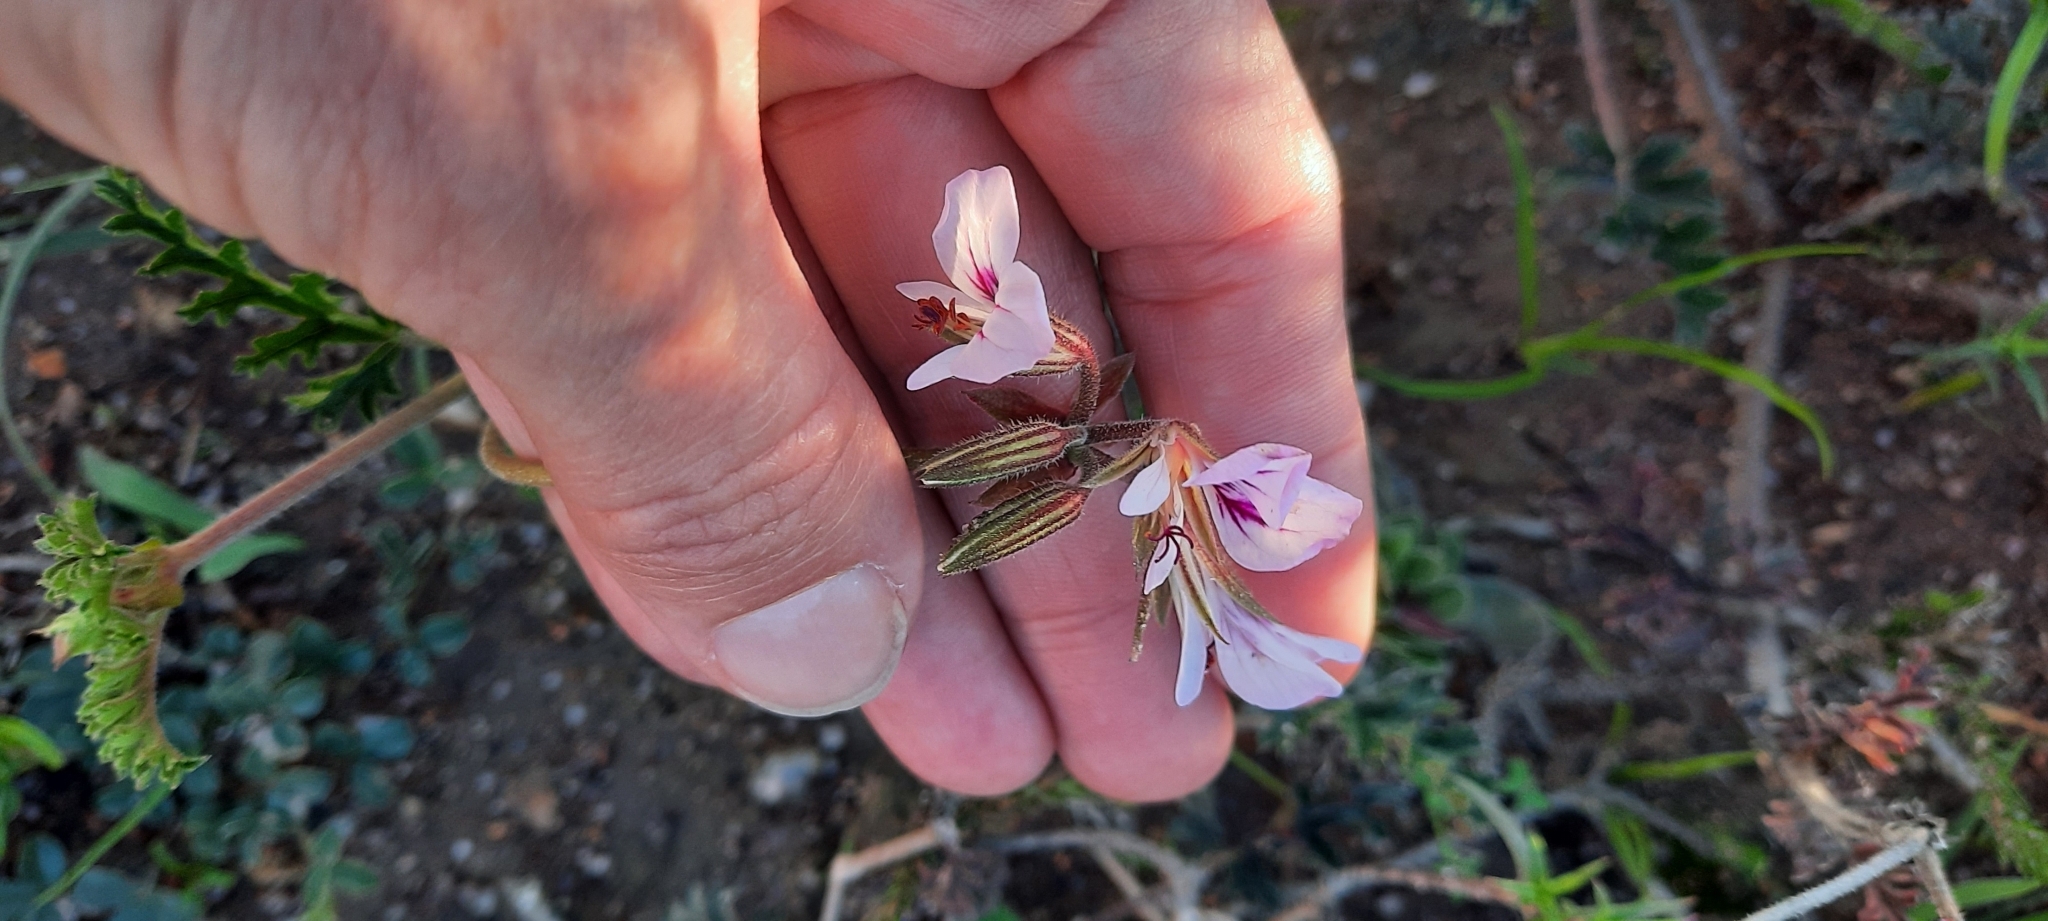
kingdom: Plantae
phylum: Tracheophyta
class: Magnoliopsida
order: Geraniales
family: Geraniaceae
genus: Pelargonium
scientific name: Pelargonium myrrhifolium
